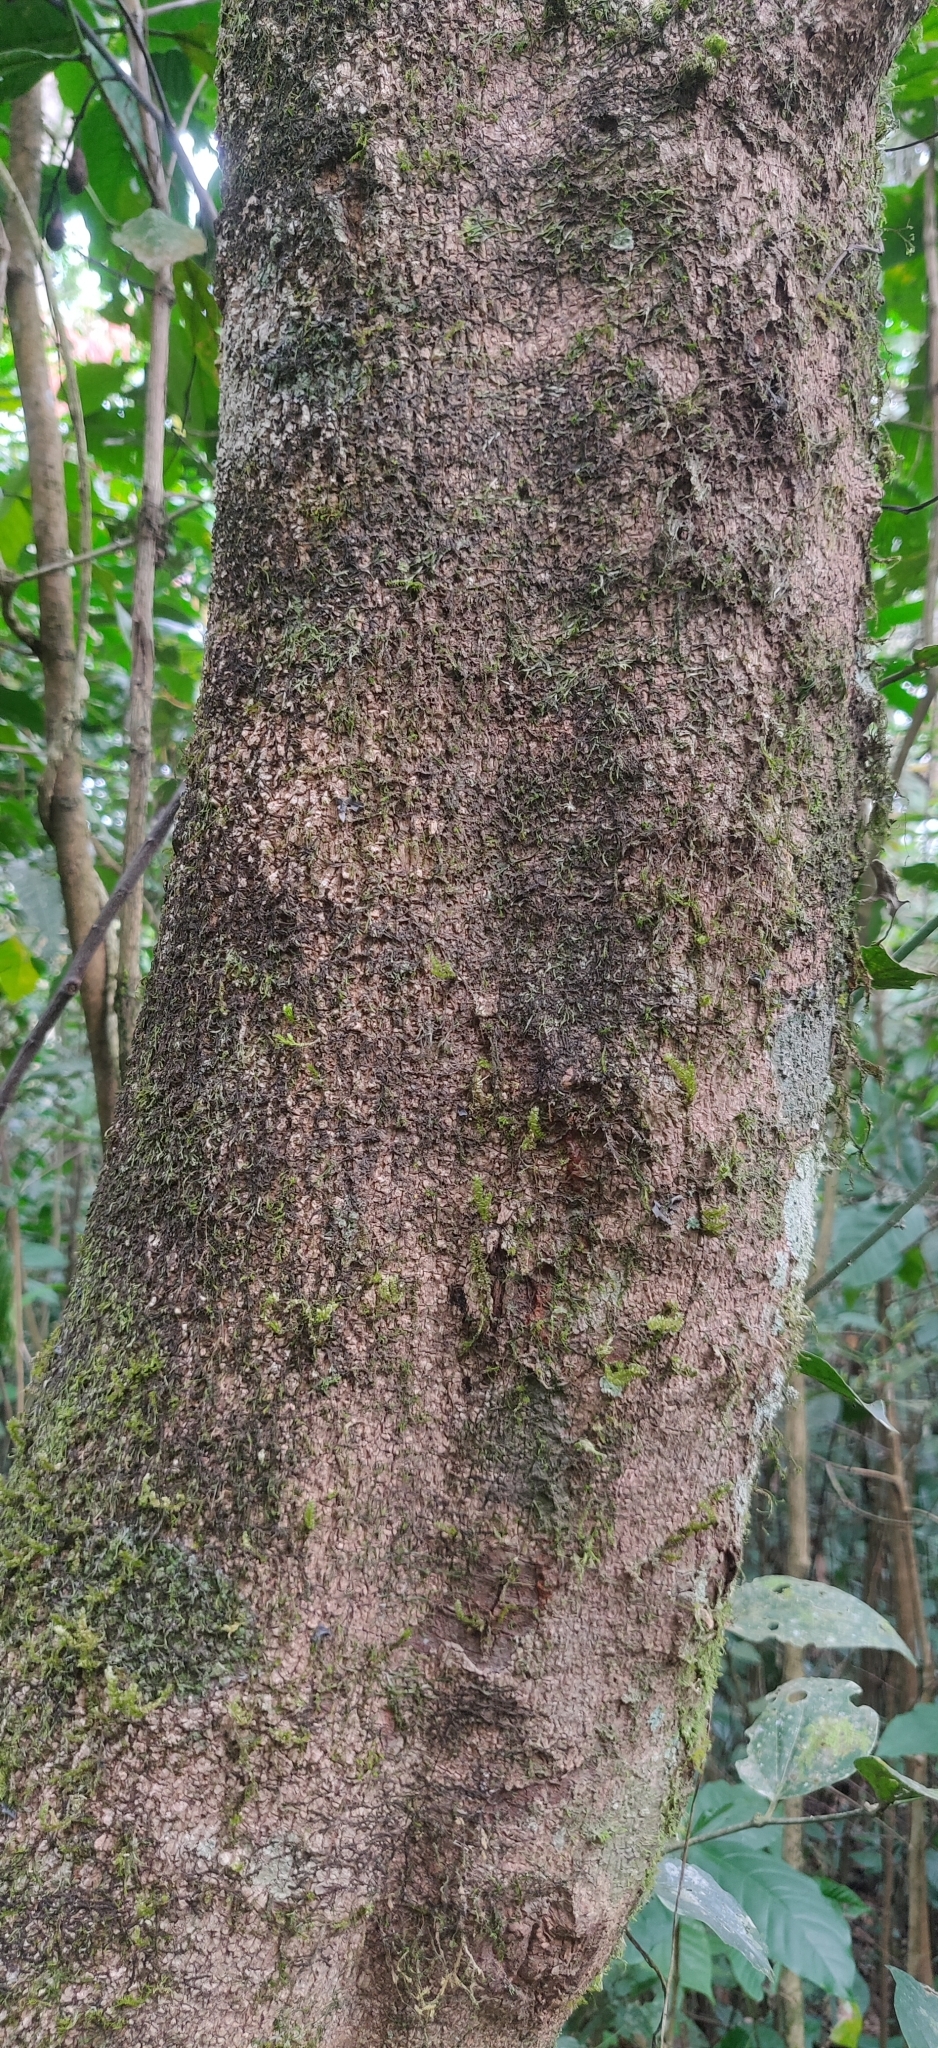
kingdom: Plantae
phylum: Tracheophyta
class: Magnoliopsida
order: Sapindales
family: Rutaceae
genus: Acronychia
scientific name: Acronychia pedunculata
